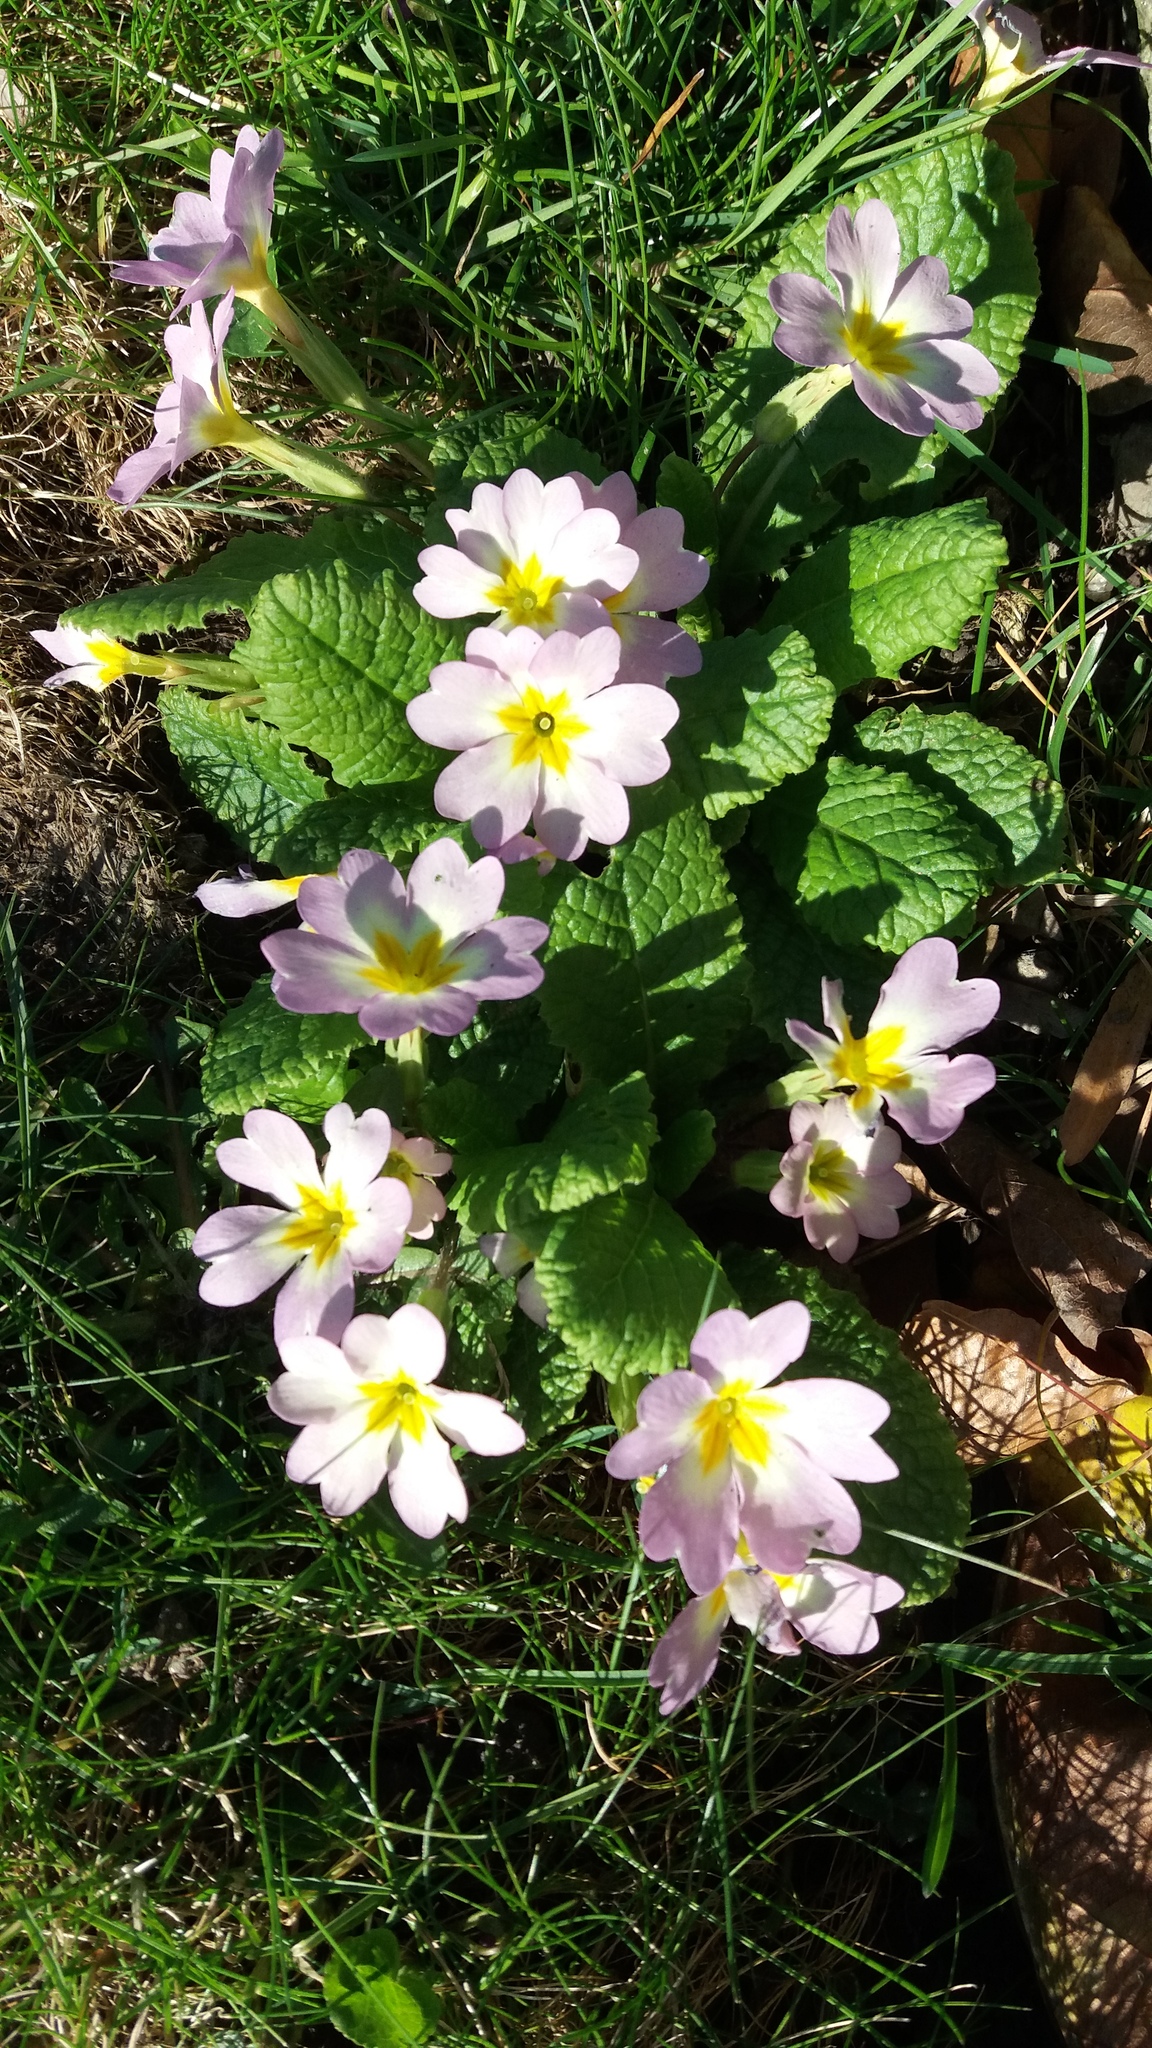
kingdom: Plantae
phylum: Tracheophyta
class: Magnoliopsida
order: Ericales
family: Primulaceae
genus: Primula
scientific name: Primula vulgaris
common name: Primrose
